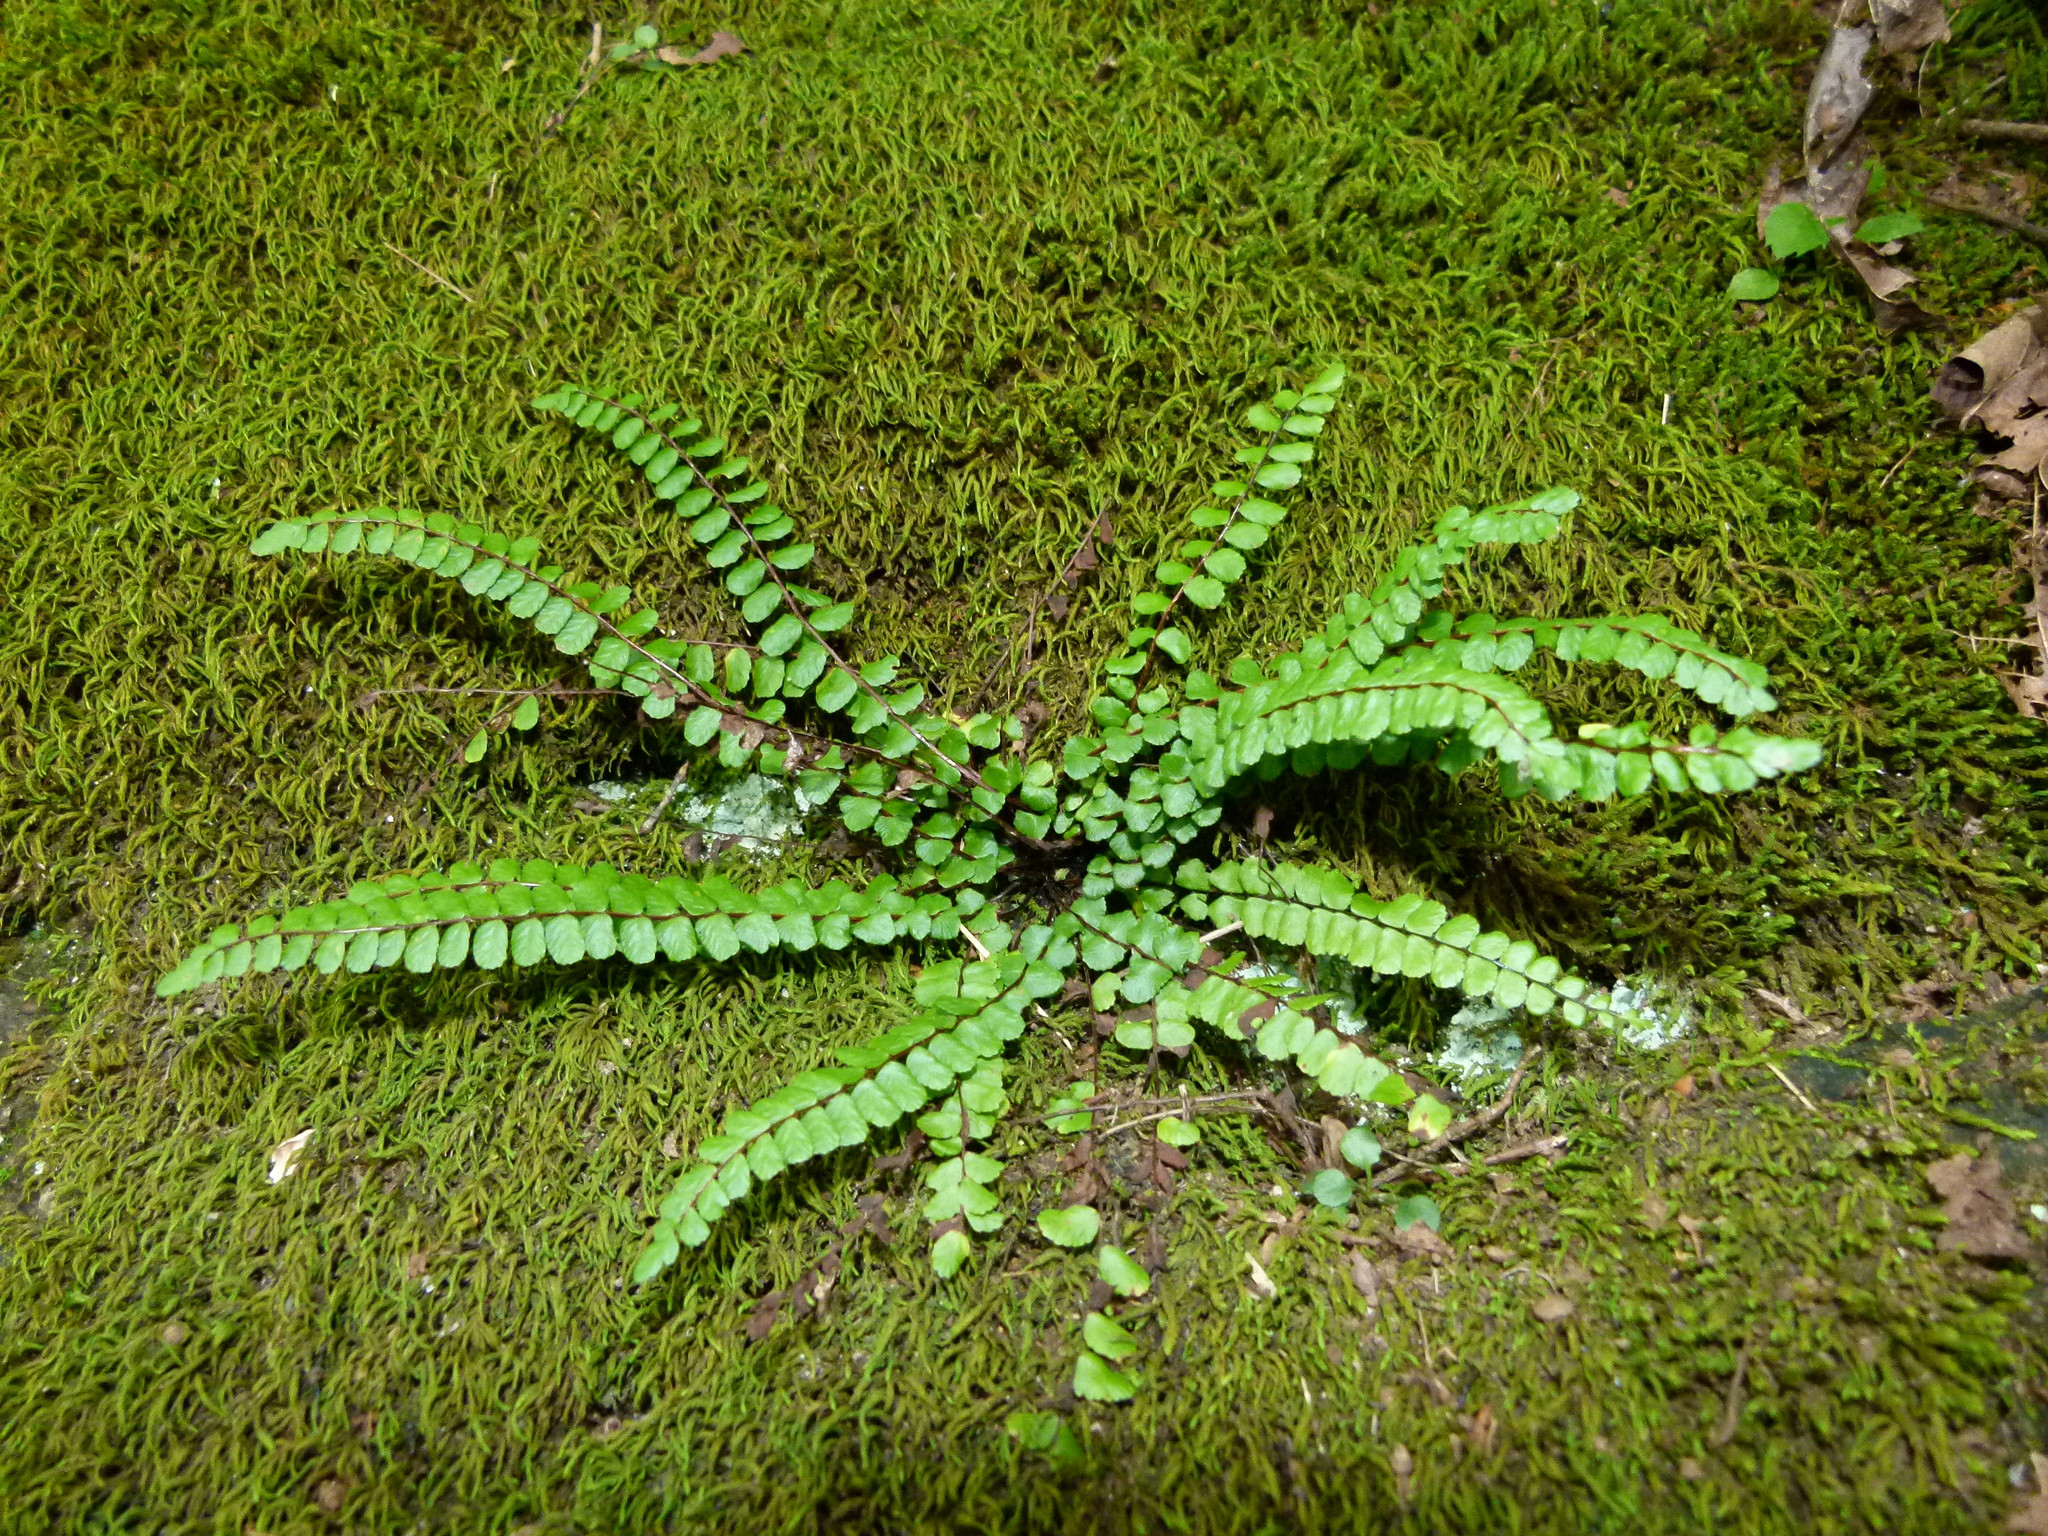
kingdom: Plantae
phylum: Tracheophyta
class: Polypodiopsida
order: Polypodiales
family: Aspleniaceae
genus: Asplenium
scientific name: Asplenium trichomanes
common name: Maidenhair spleenwort
